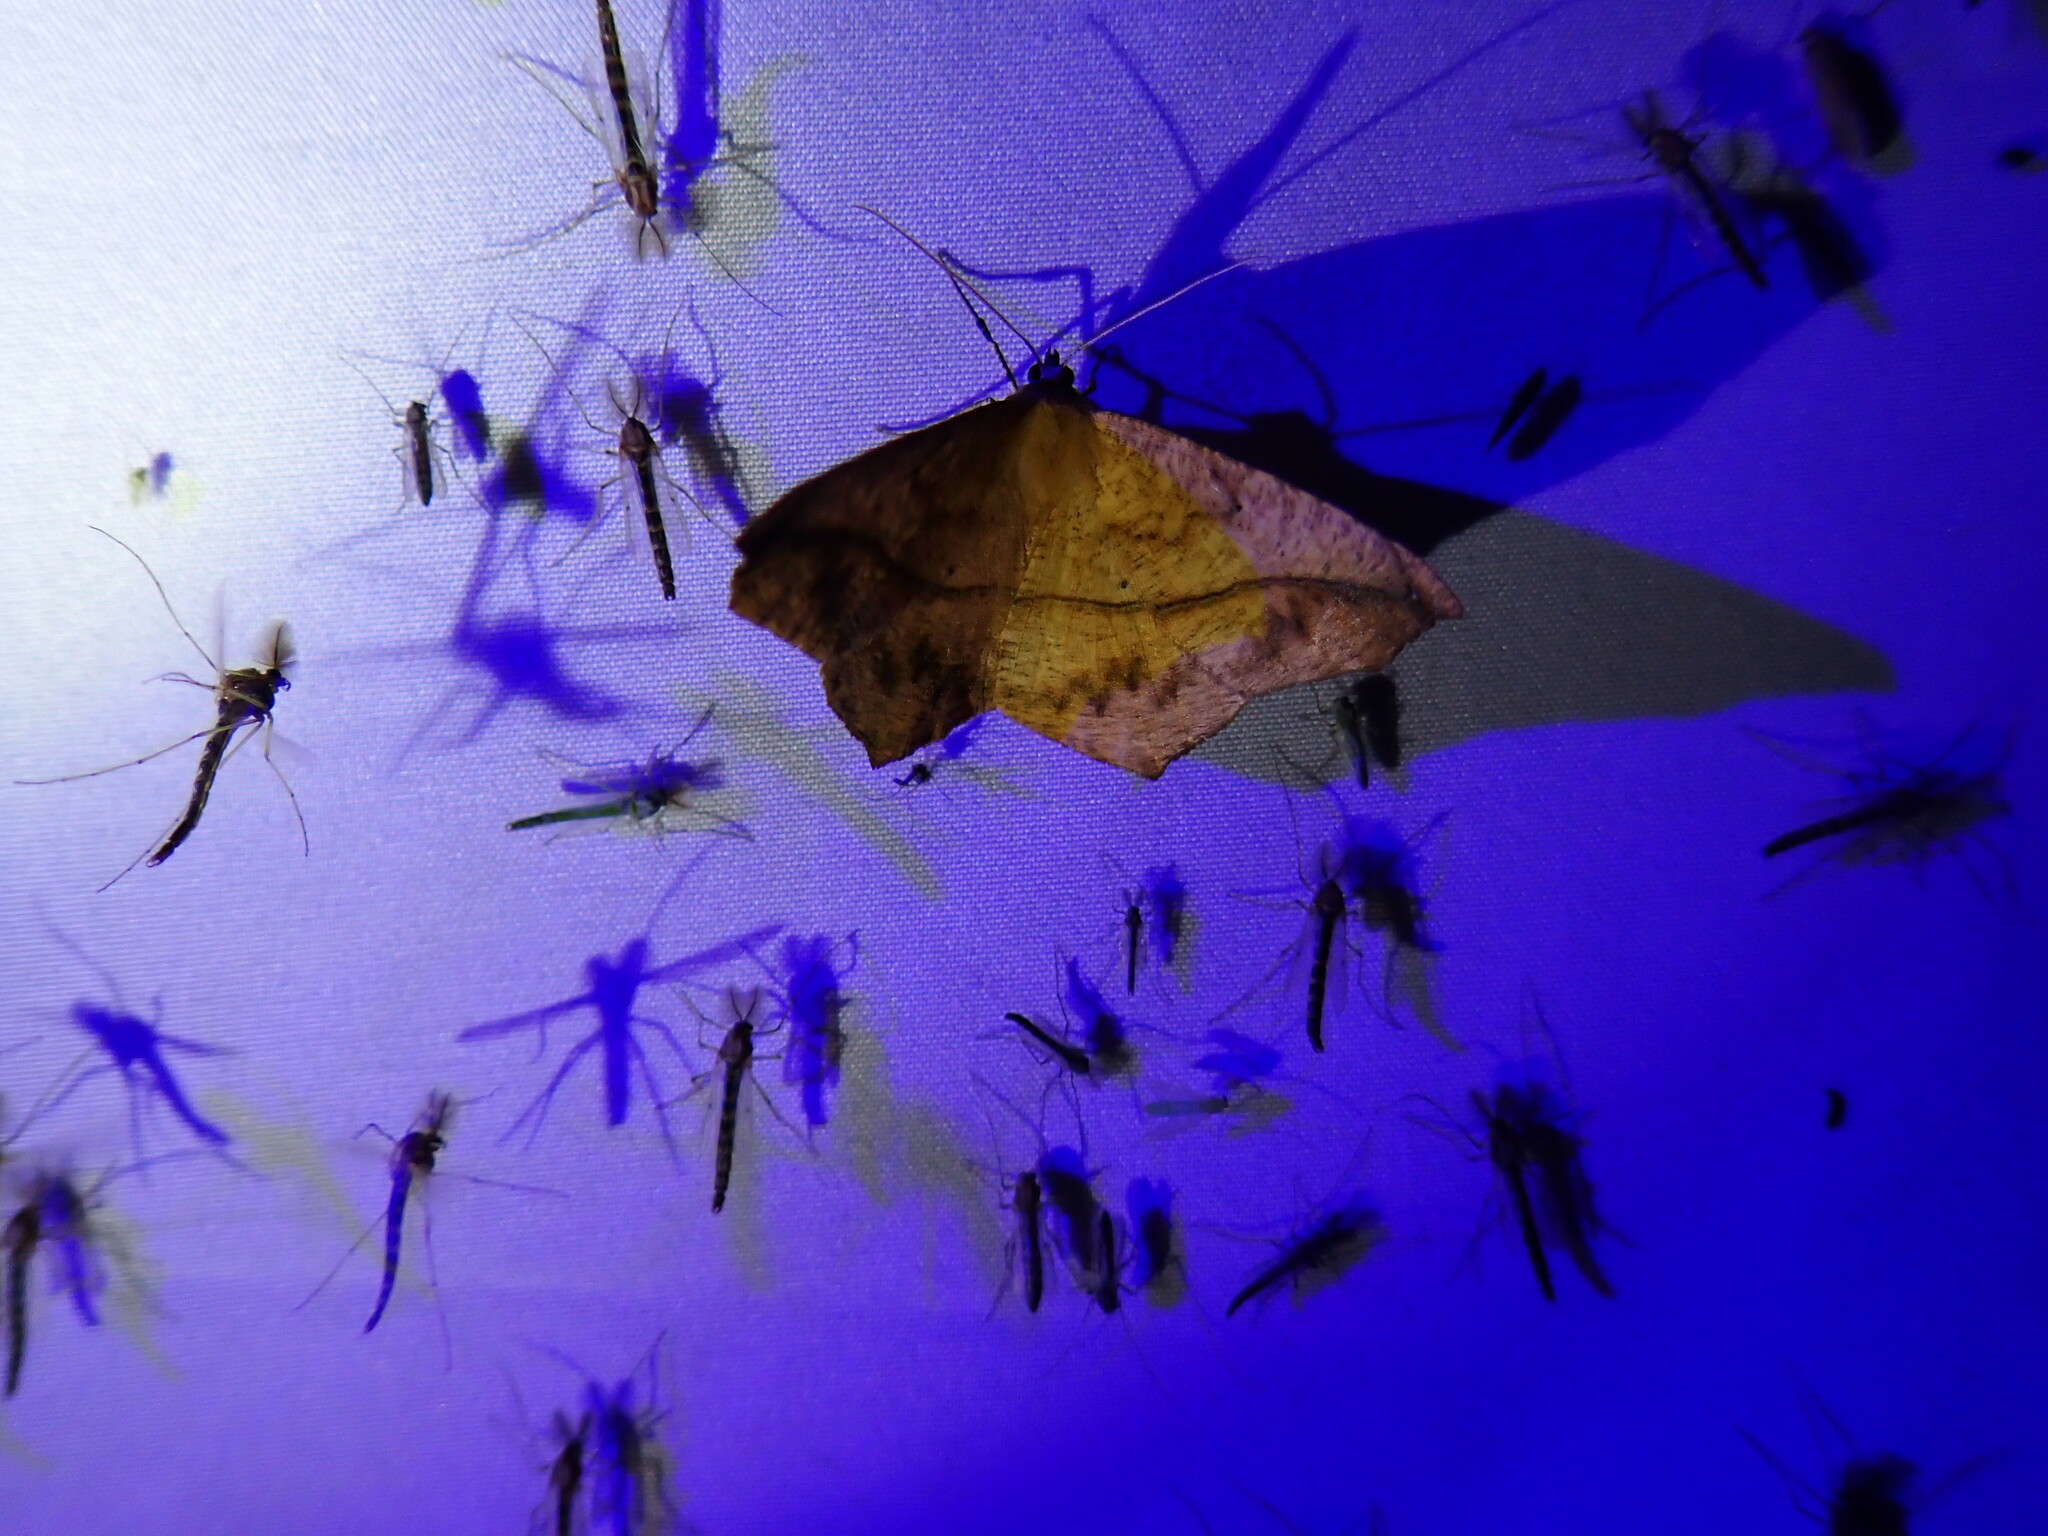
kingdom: Animalia
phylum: Arthropoda
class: Insecta
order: Lepidoptera
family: Geometridae
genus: Ennomos
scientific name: Ennomos magnaria
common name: Maple spanworm
